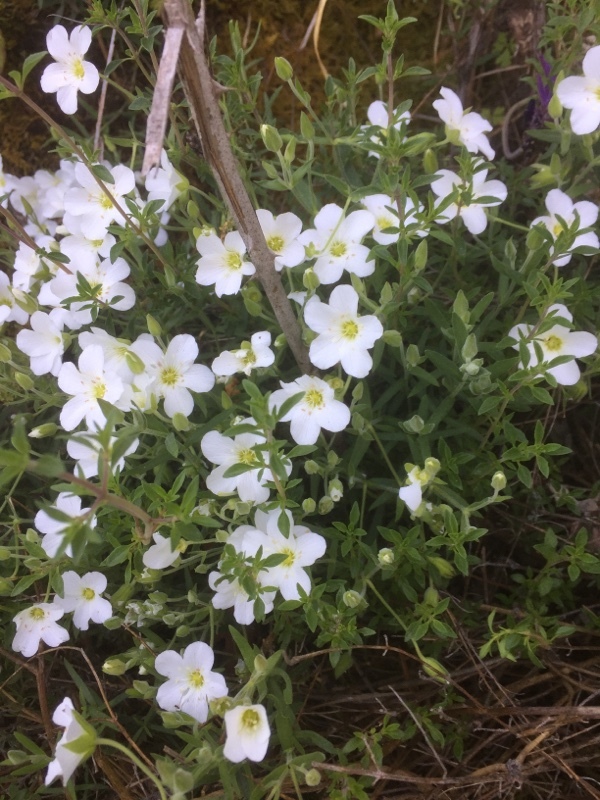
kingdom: Plantae
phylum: Tracheophyta
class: Magnoliopsida
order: Caryophyllales
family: Caryophyllaceae
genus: Arenaria
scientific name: Arenaria montana
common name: Mountain sandwort
